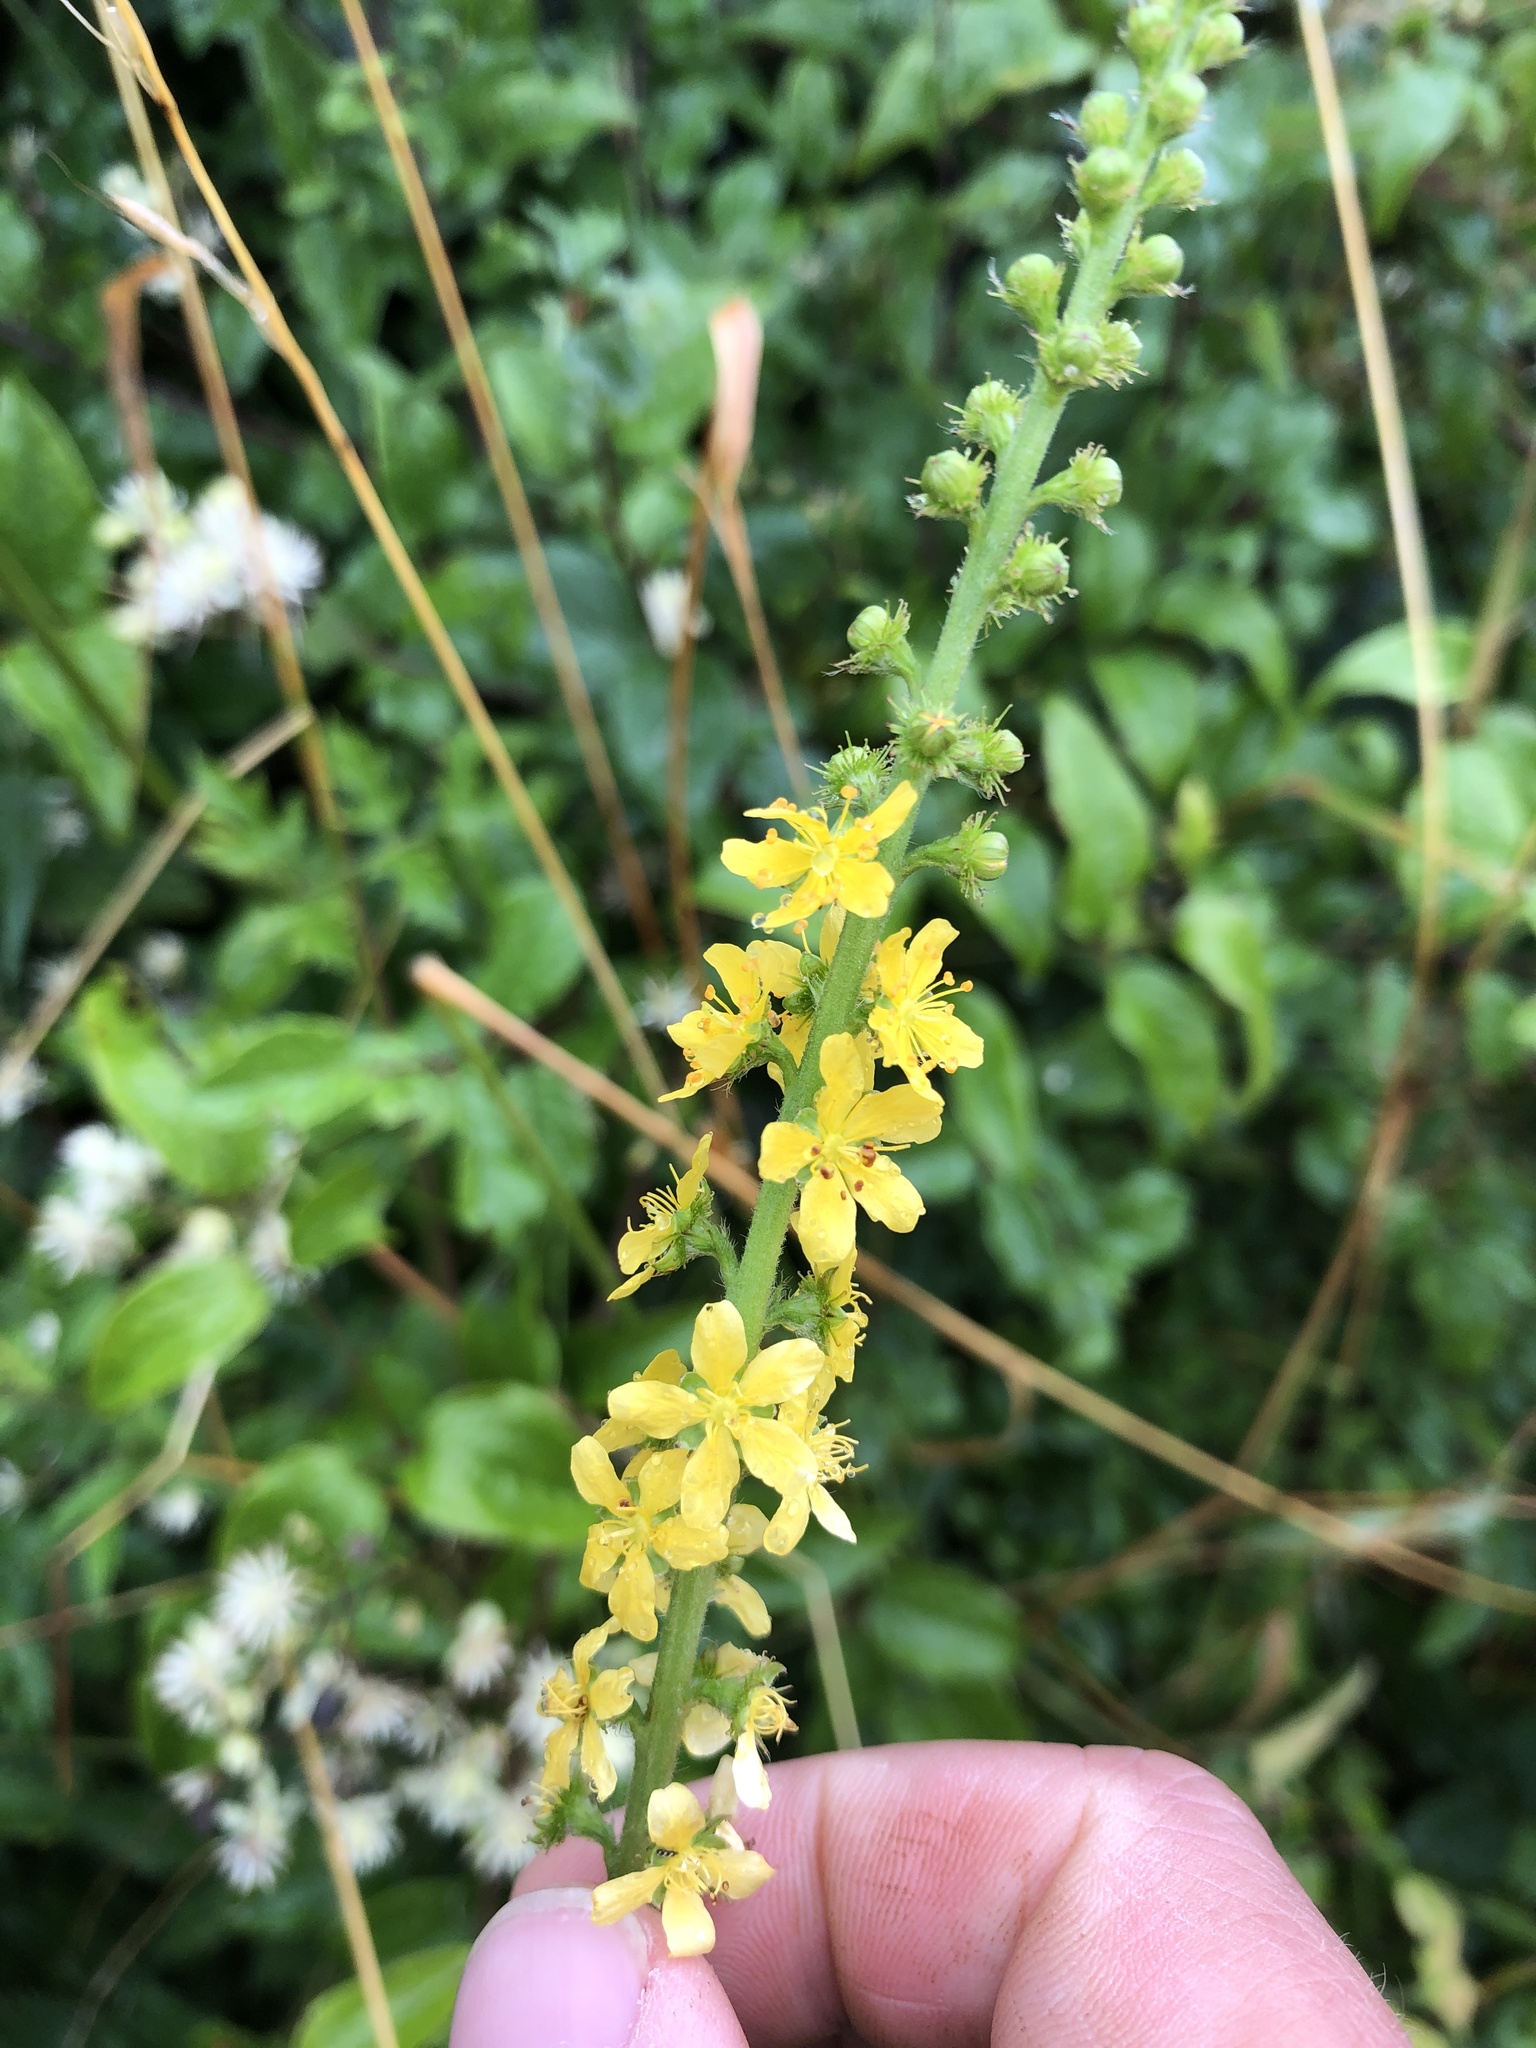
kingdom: Plantae
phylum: Tracheophyta
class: Magnoliopsida
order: Rosales
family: Rosaceae
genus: Agrimonia
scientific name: Agrimonia eupatoria
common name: Agrimony
